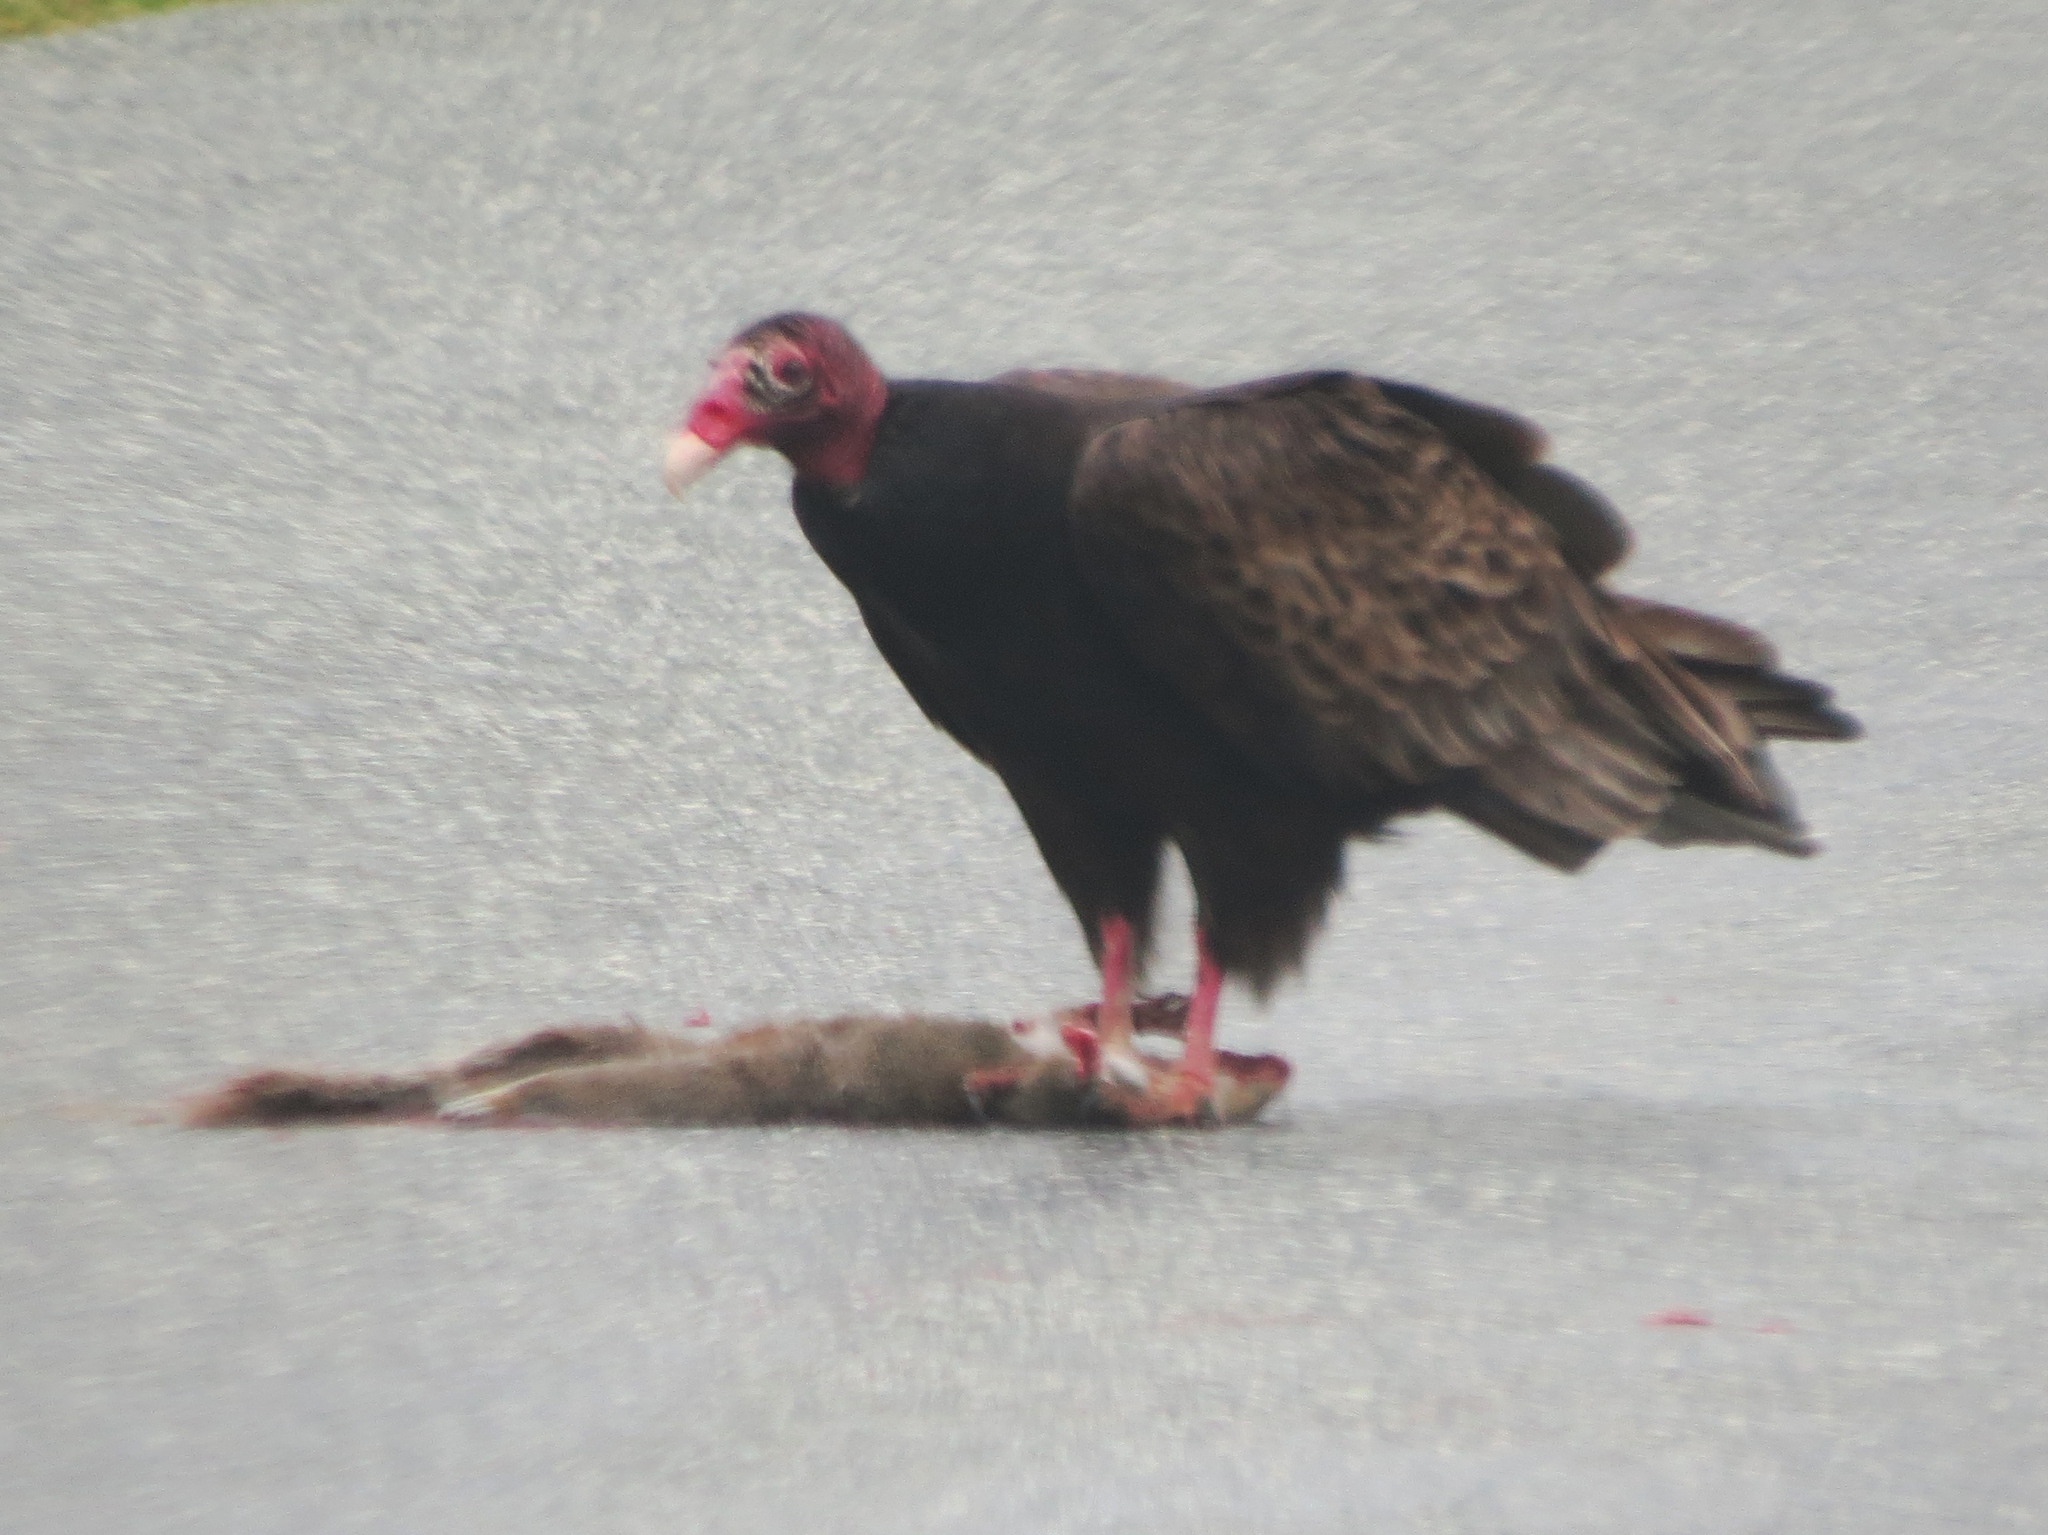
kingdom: Animalia
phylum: Chordata
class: Aves
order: Accipitriformes
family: Cathartidae
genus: Cathartes
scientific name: Cathartes aura
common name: Turkey vulture
